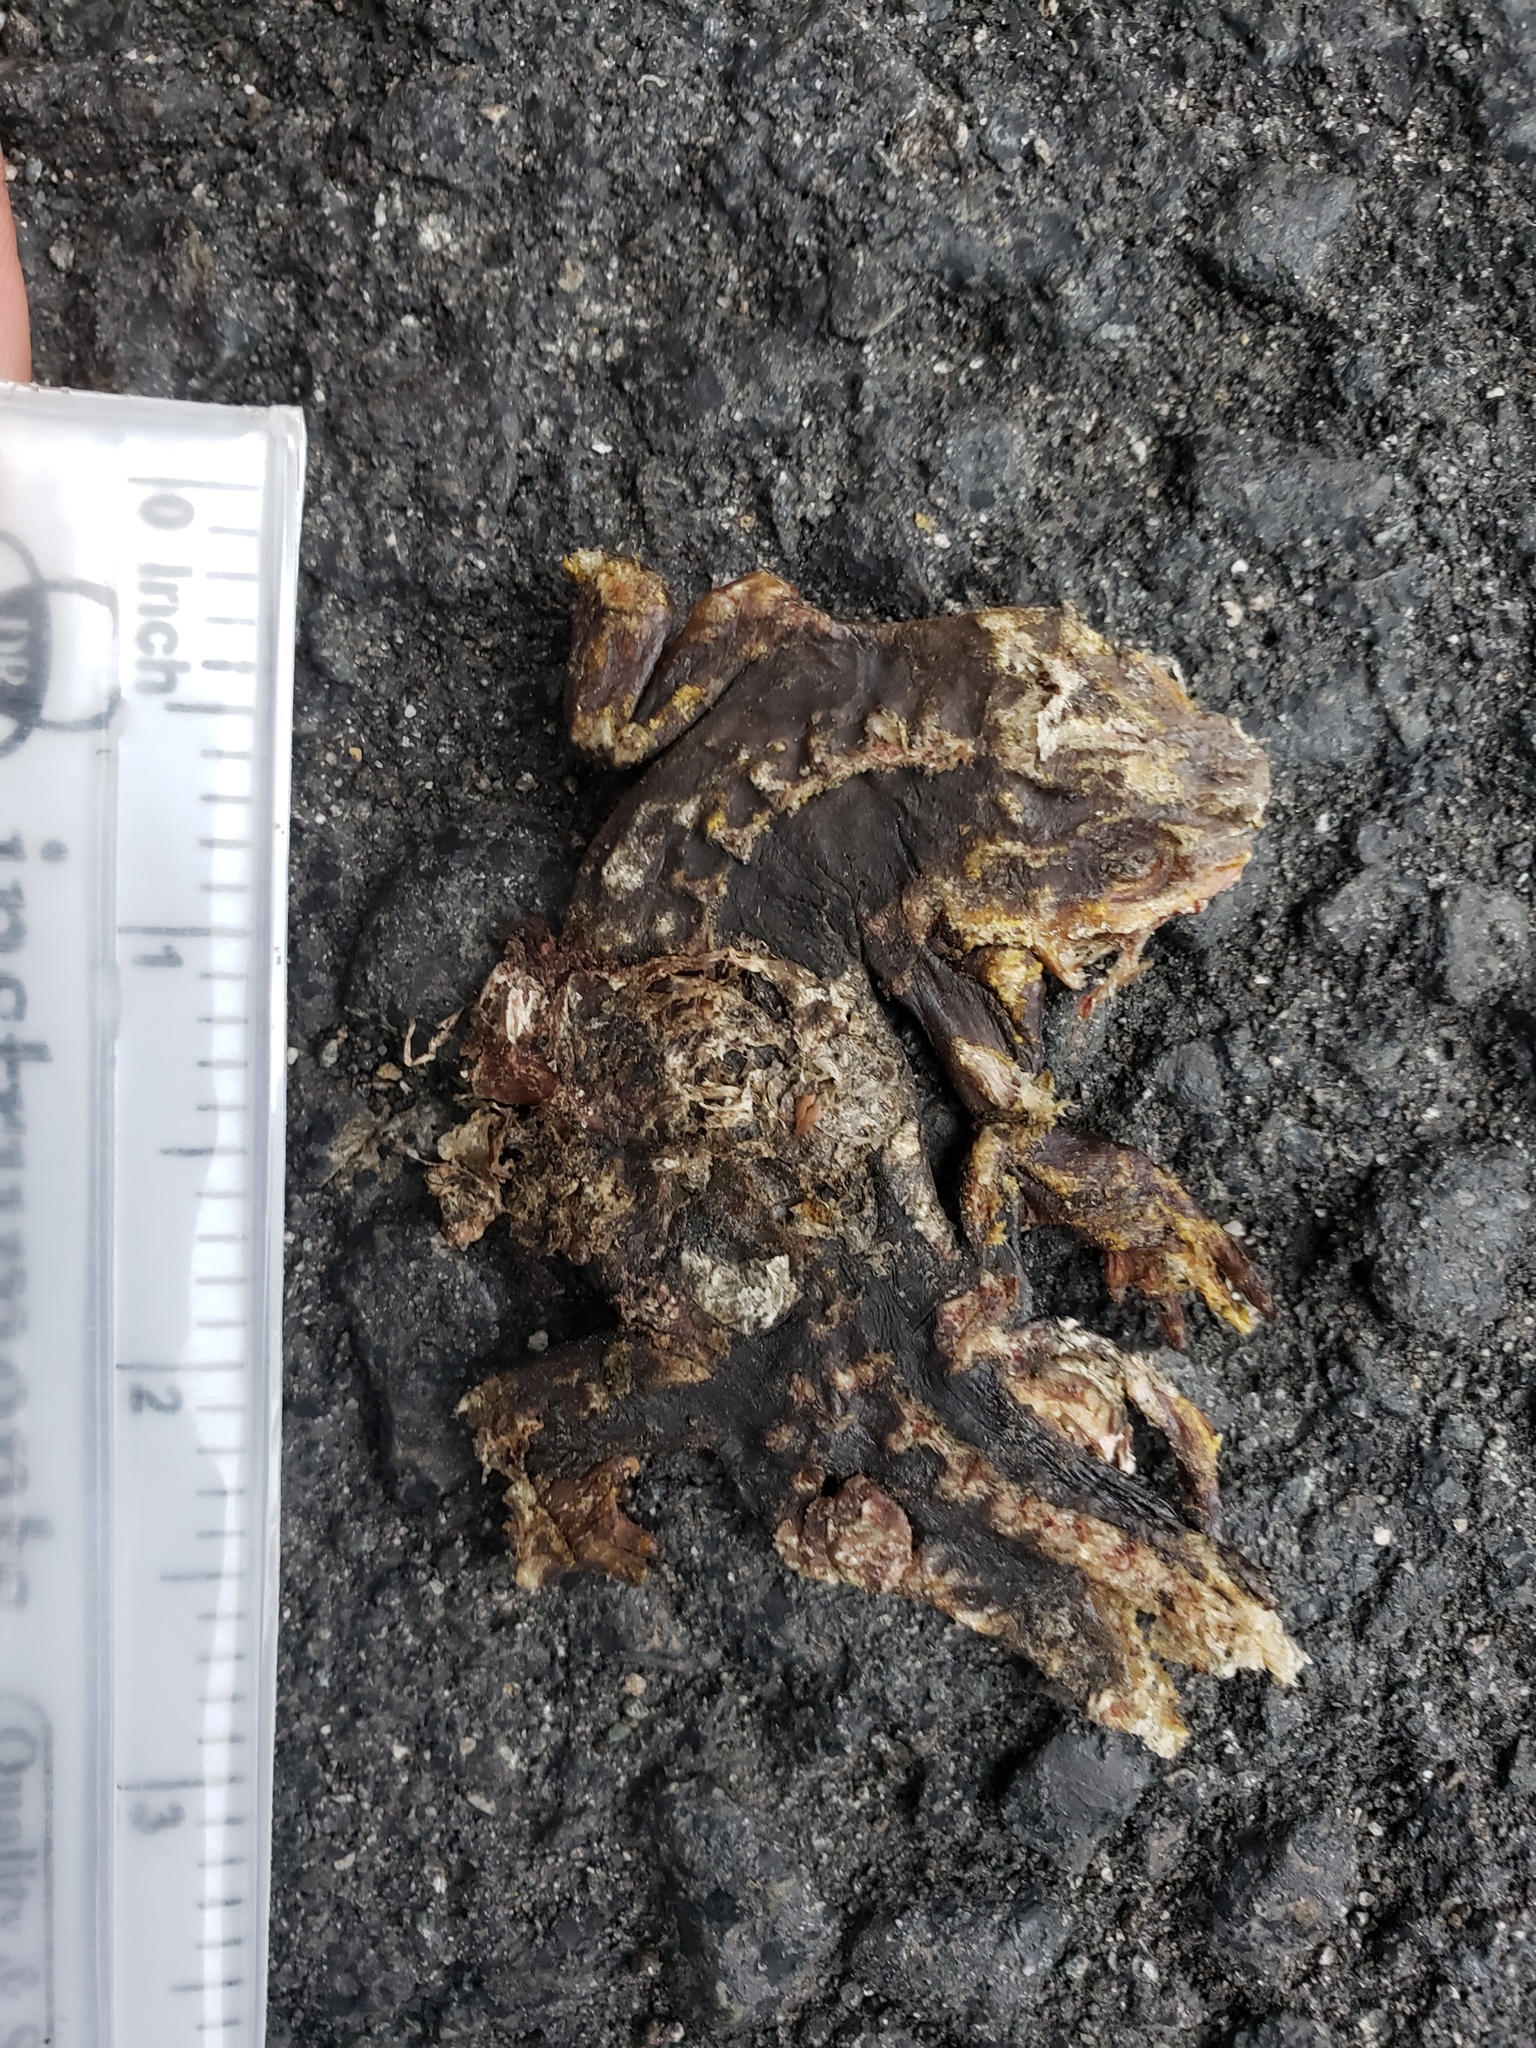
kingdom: Animalia
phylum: Chordata
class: Amphibia
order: Caudata
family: Salamandridae
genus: Taricha
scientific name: Taricha
